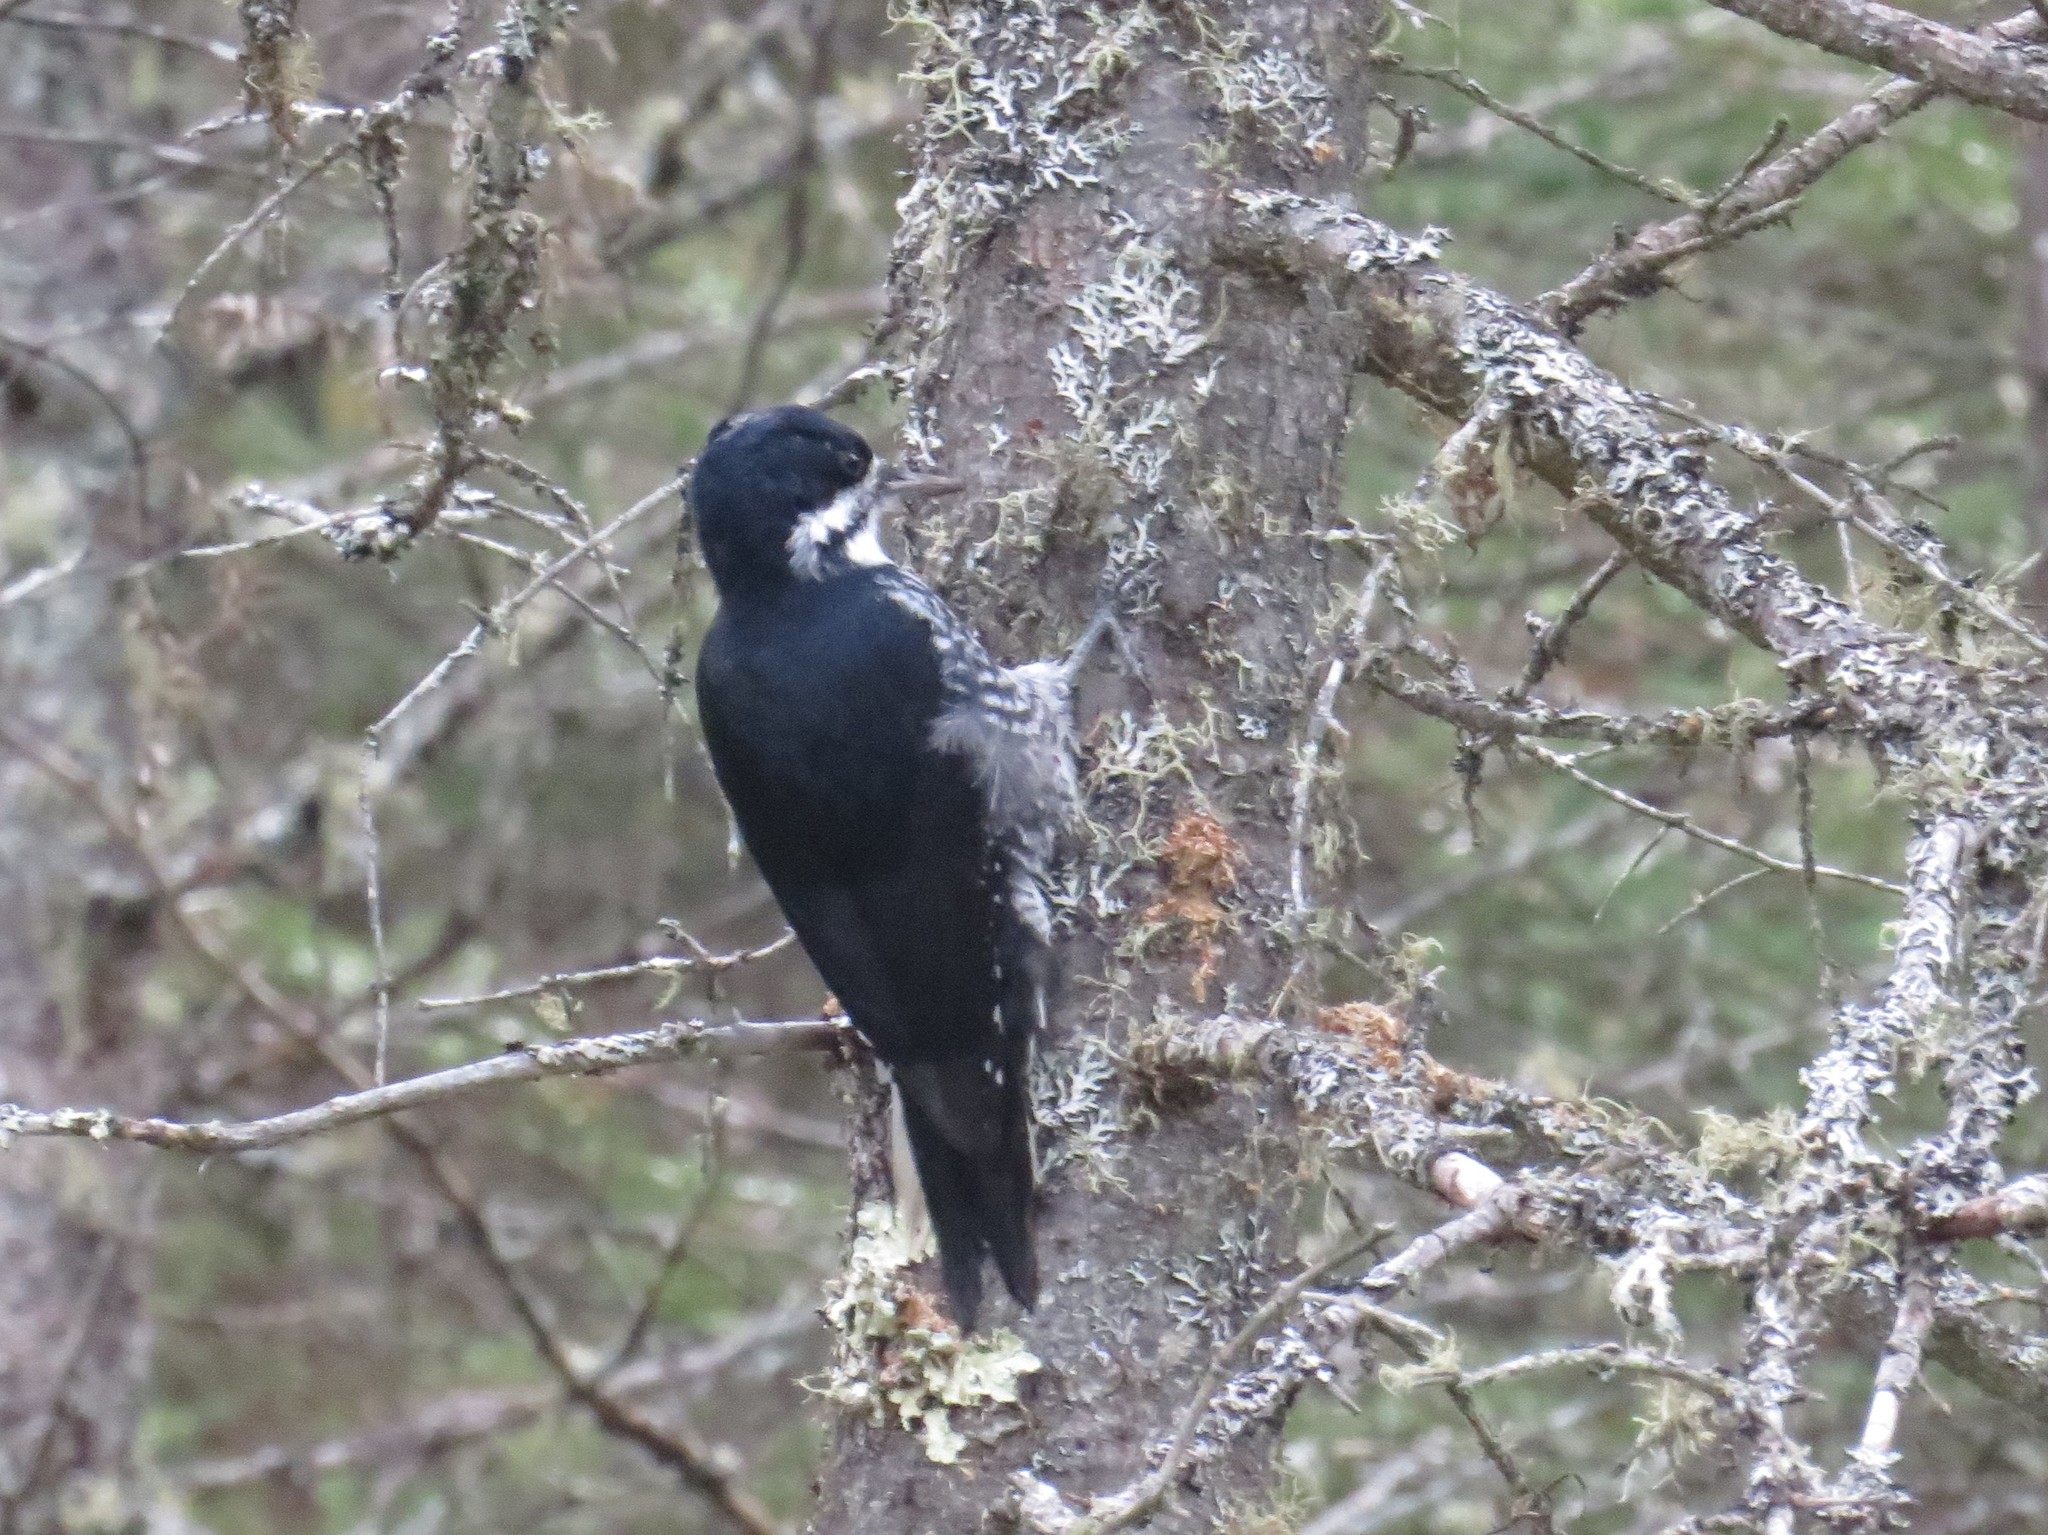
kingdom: Animalia
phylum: Chordata
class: Aves
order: Piciformes
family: Picidae
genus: Picoides
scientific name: Picoides arcticus
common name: Black-backed woodpecker
